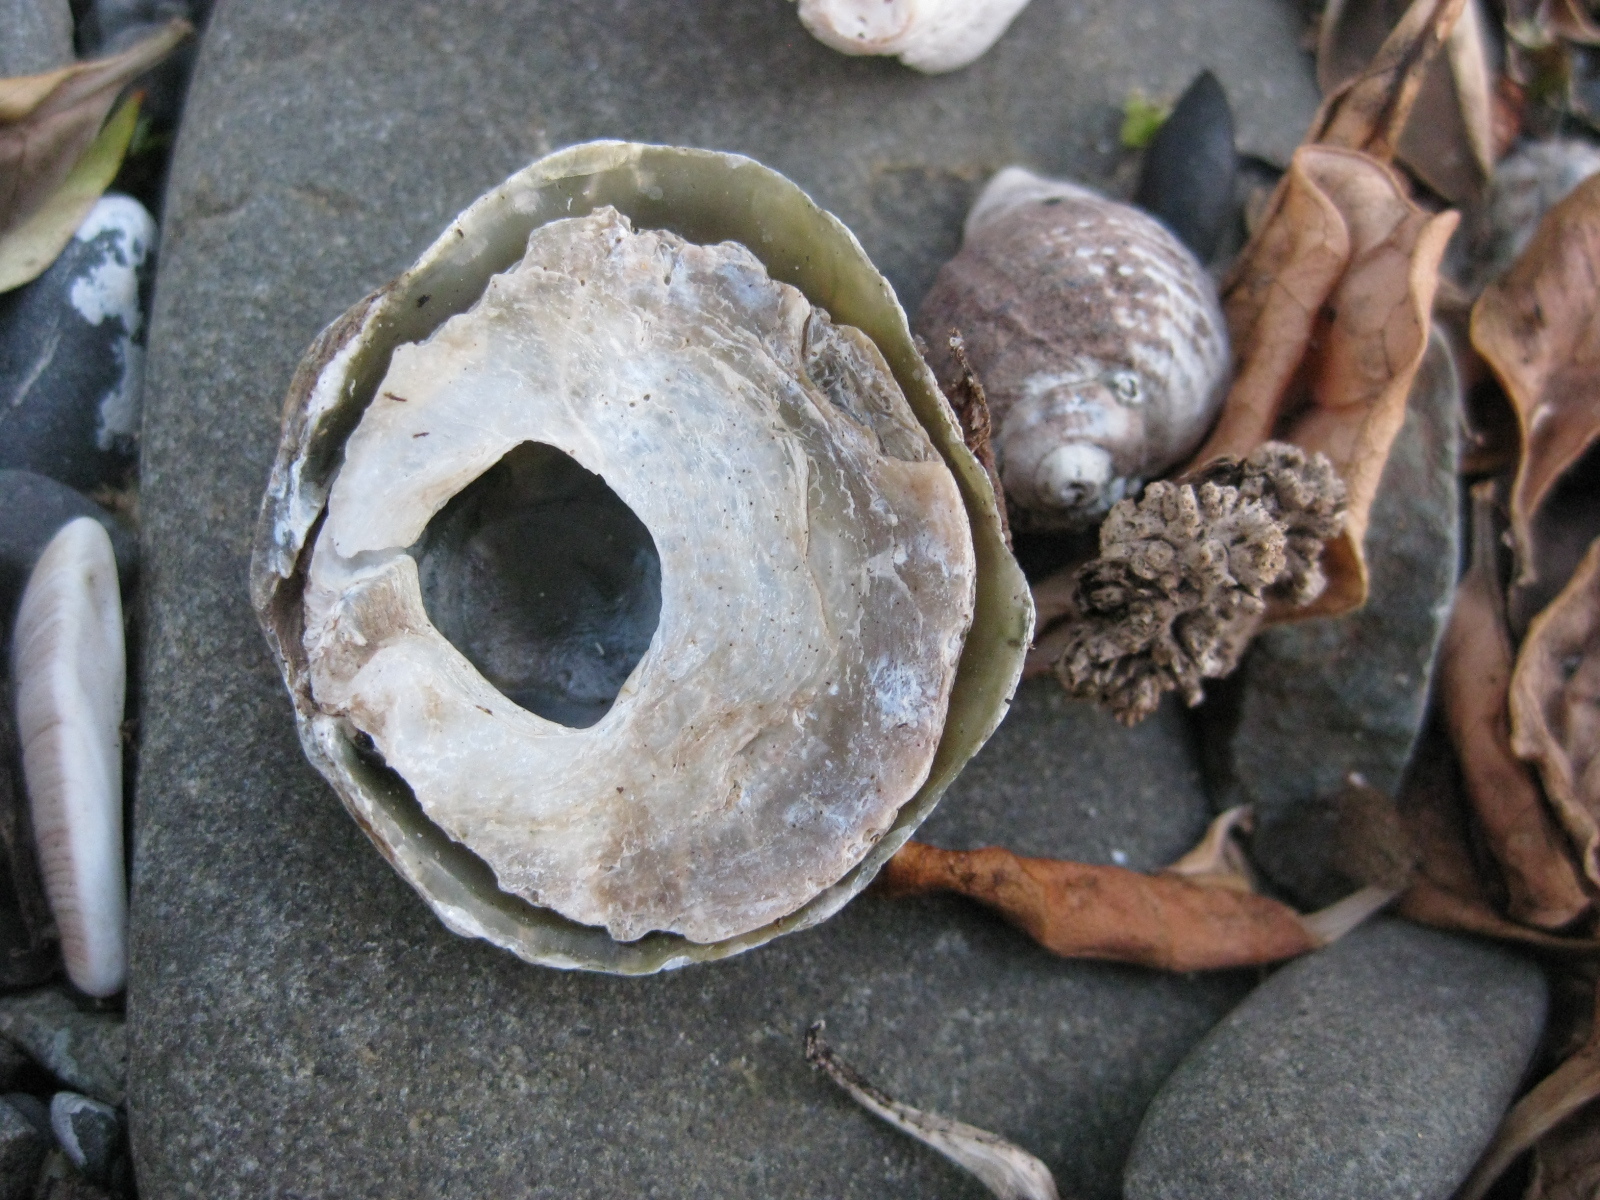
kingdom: Animalia
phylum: Mollusca
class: Bivalvia
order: Pectinida
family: Anomiidae
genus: Monia
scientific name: Monia zelandica
